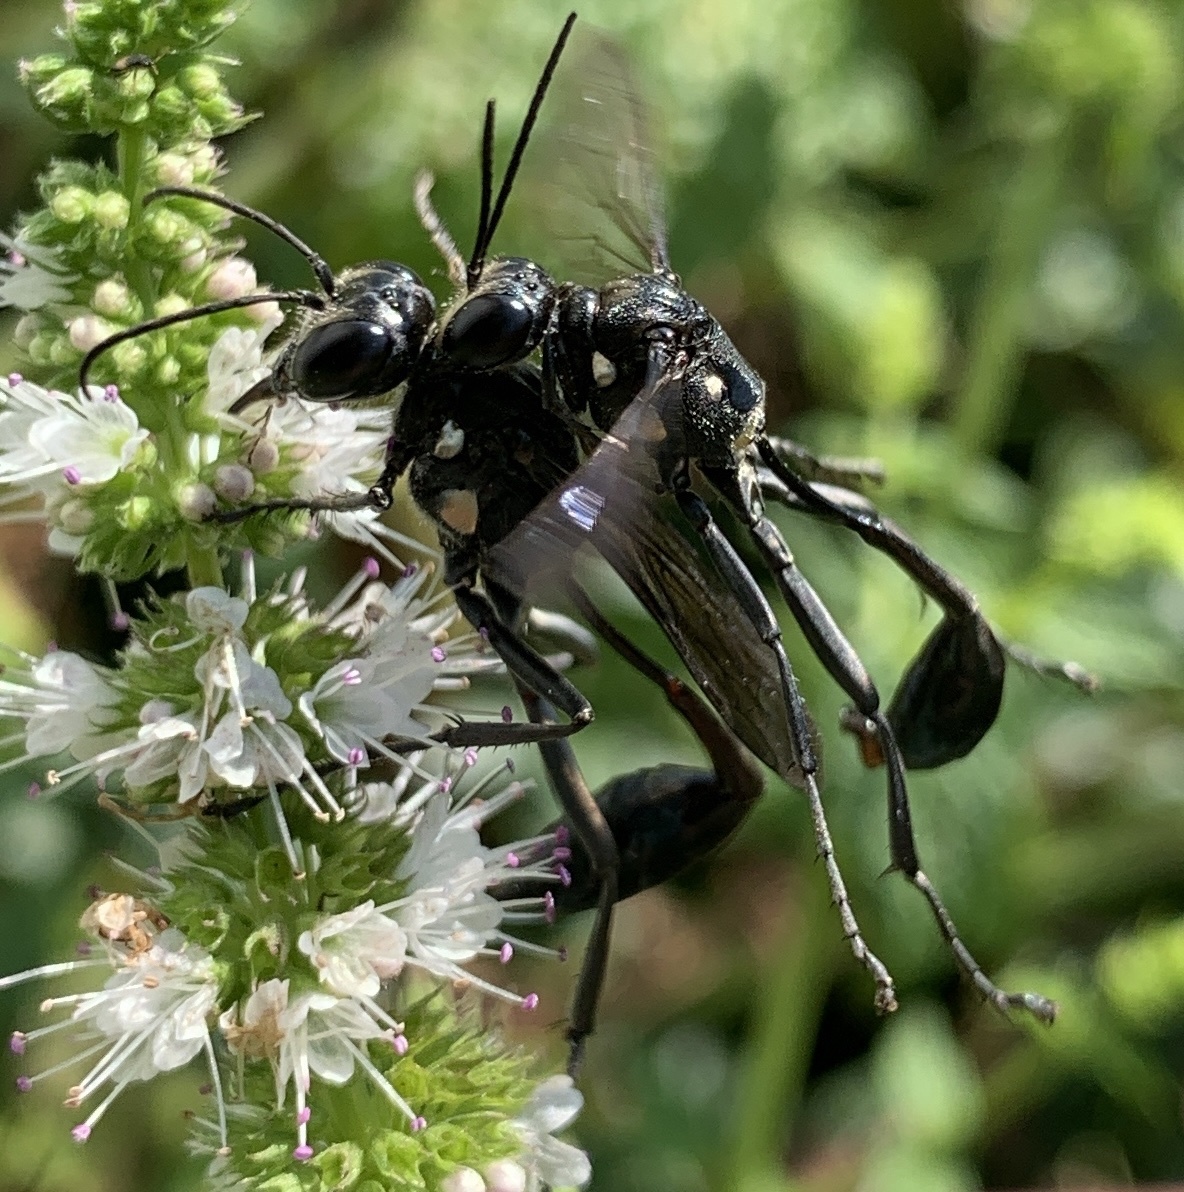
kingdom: Animalia
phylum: Arthropoda
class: Insecta
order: Hymenoptera
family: Sphecidae
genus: Eremnophila
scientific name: Eremnophila aureonotata
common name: Gold-marked thread-waisted wasp
